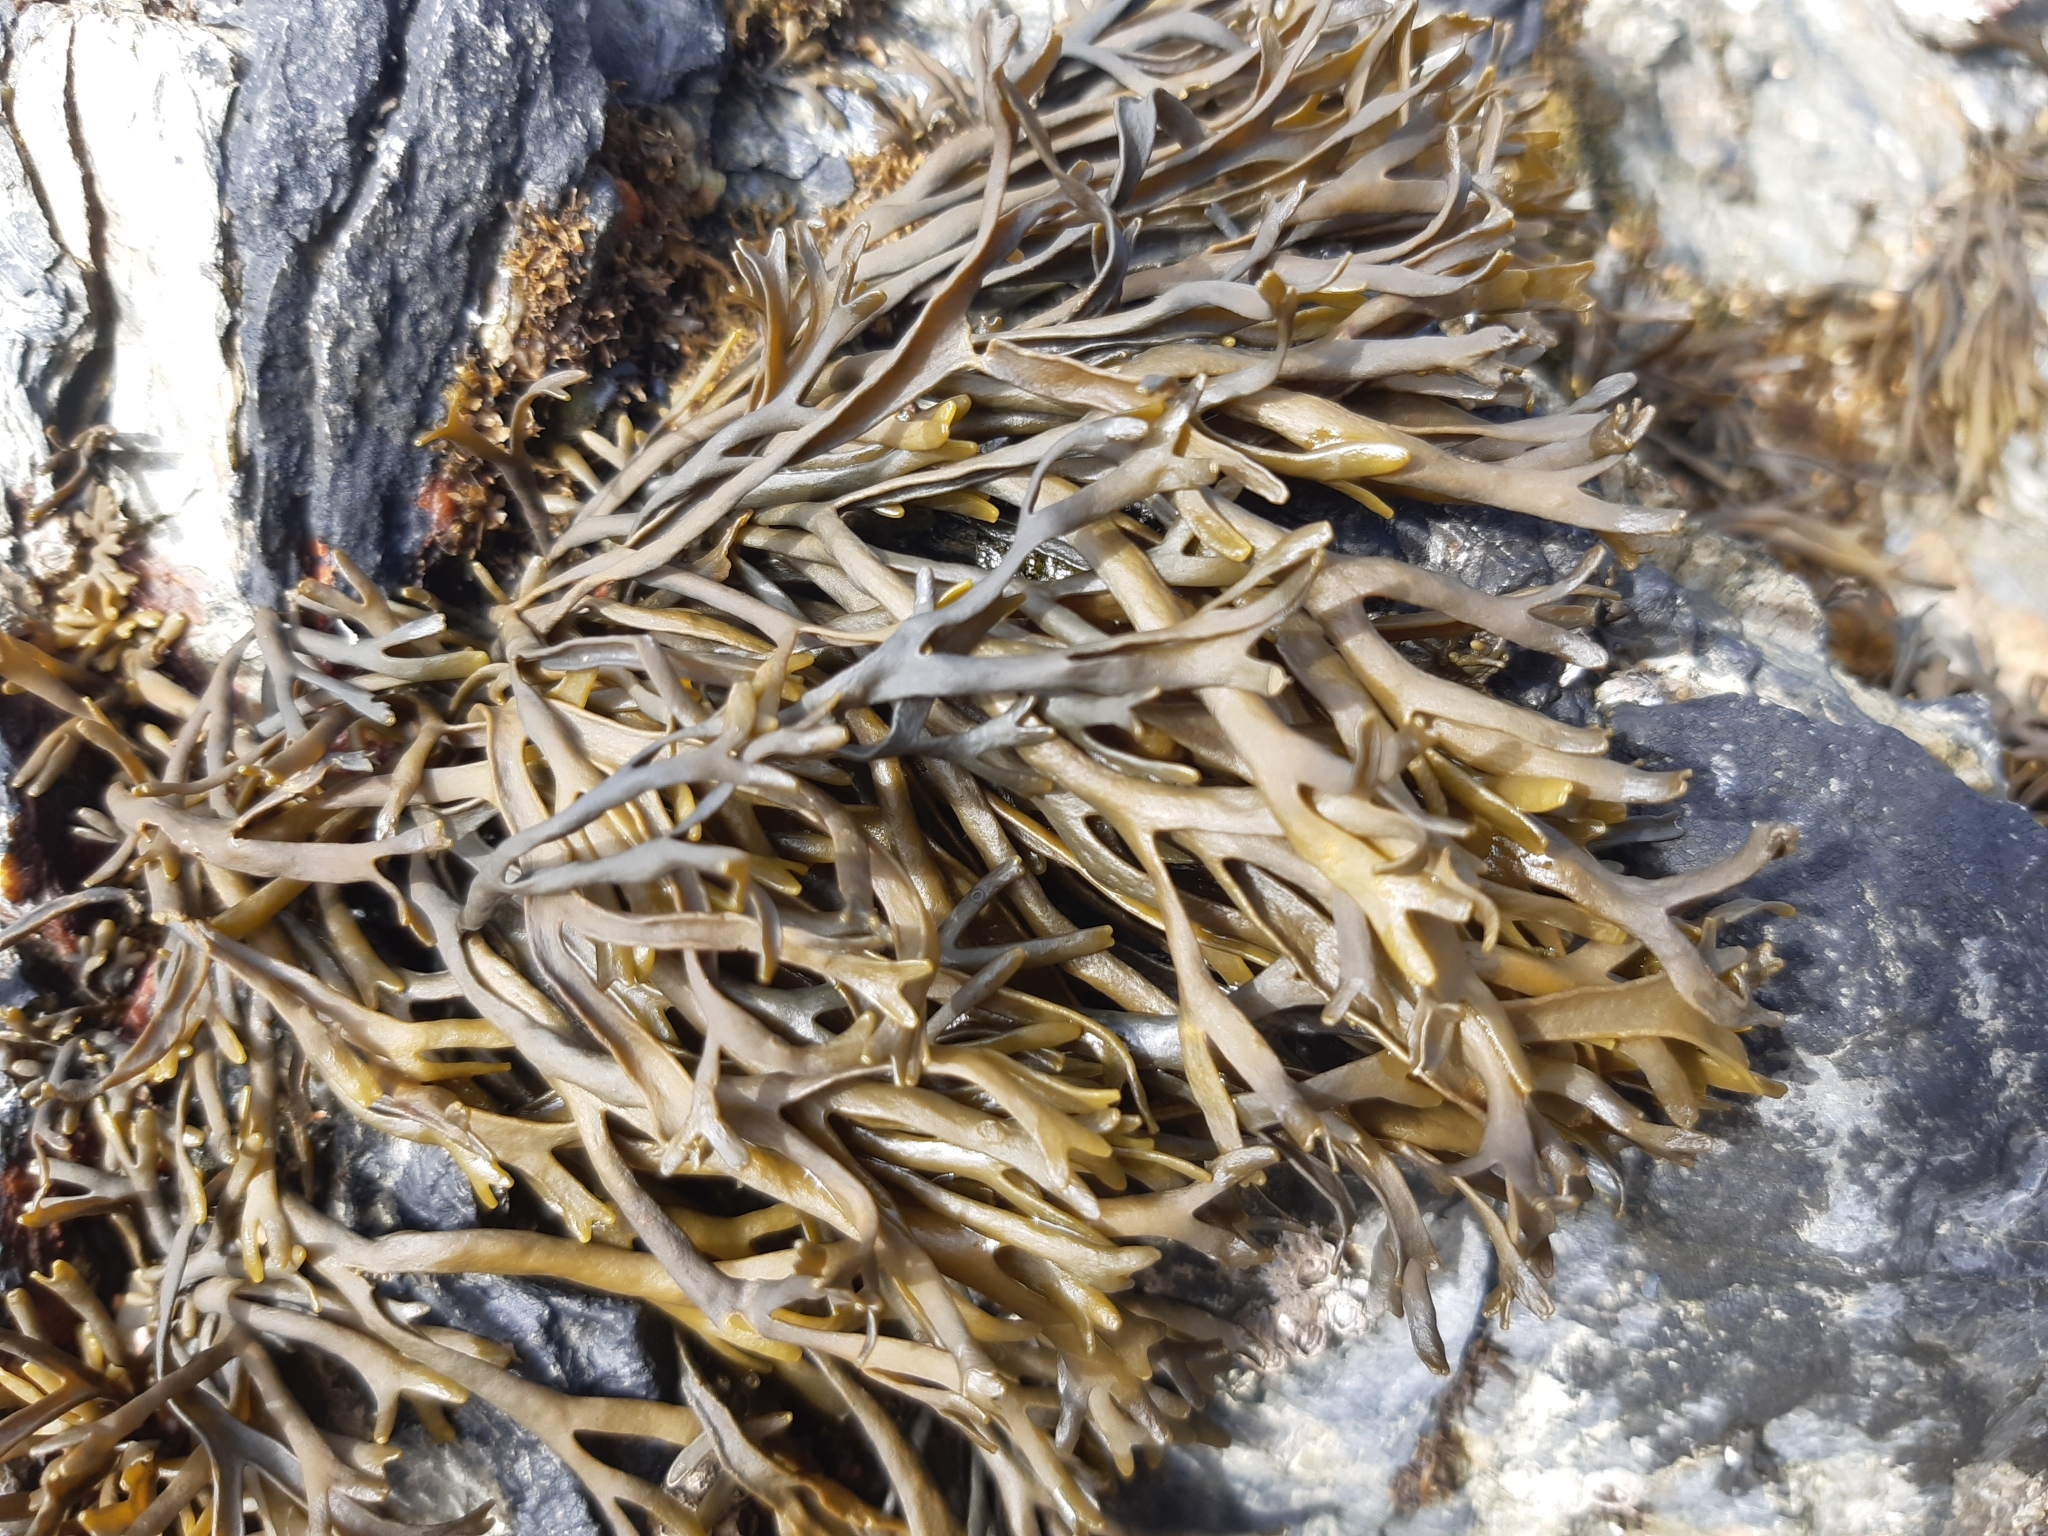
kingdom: Chromista
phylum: Ochrophyta
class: Phaeophyceae
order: Fucales
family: Fucaceae
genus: Pelvetia
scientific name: Pelvetia canaliculata
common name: Channelled wrack
